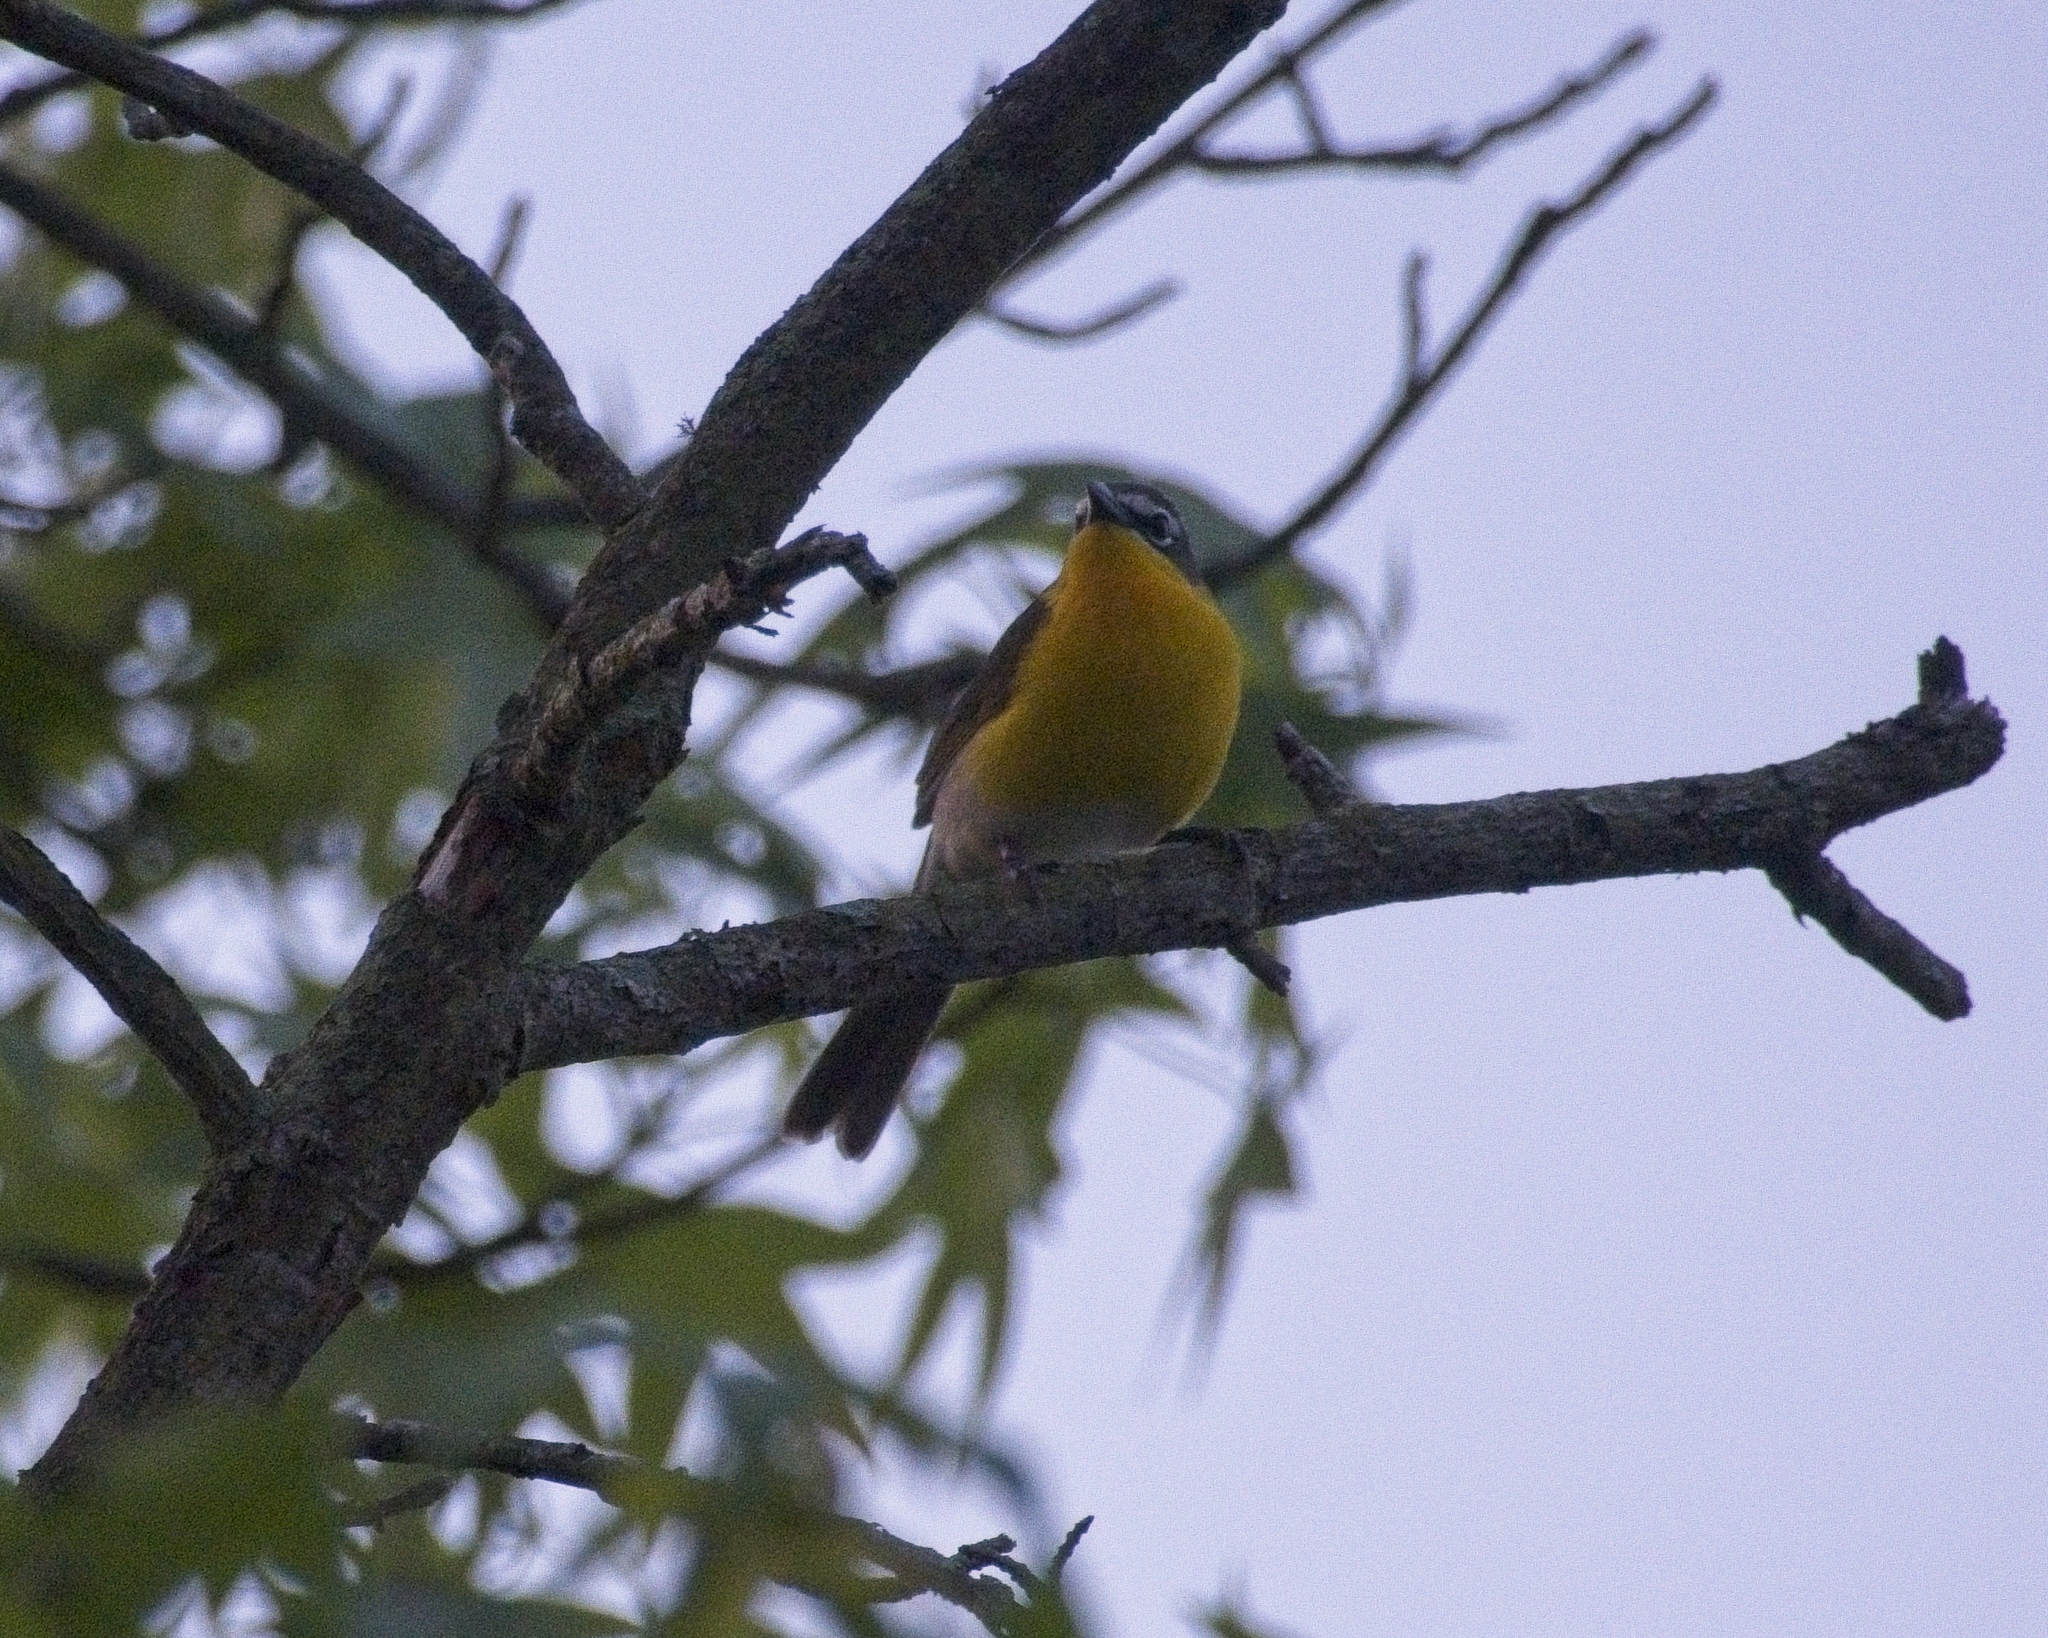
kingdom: Animalia
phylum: Chordata
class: Aves
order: Passeriformes
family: Parulidae
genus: Icteria
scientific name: Icteria virens
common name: Yellow-breasted chat
